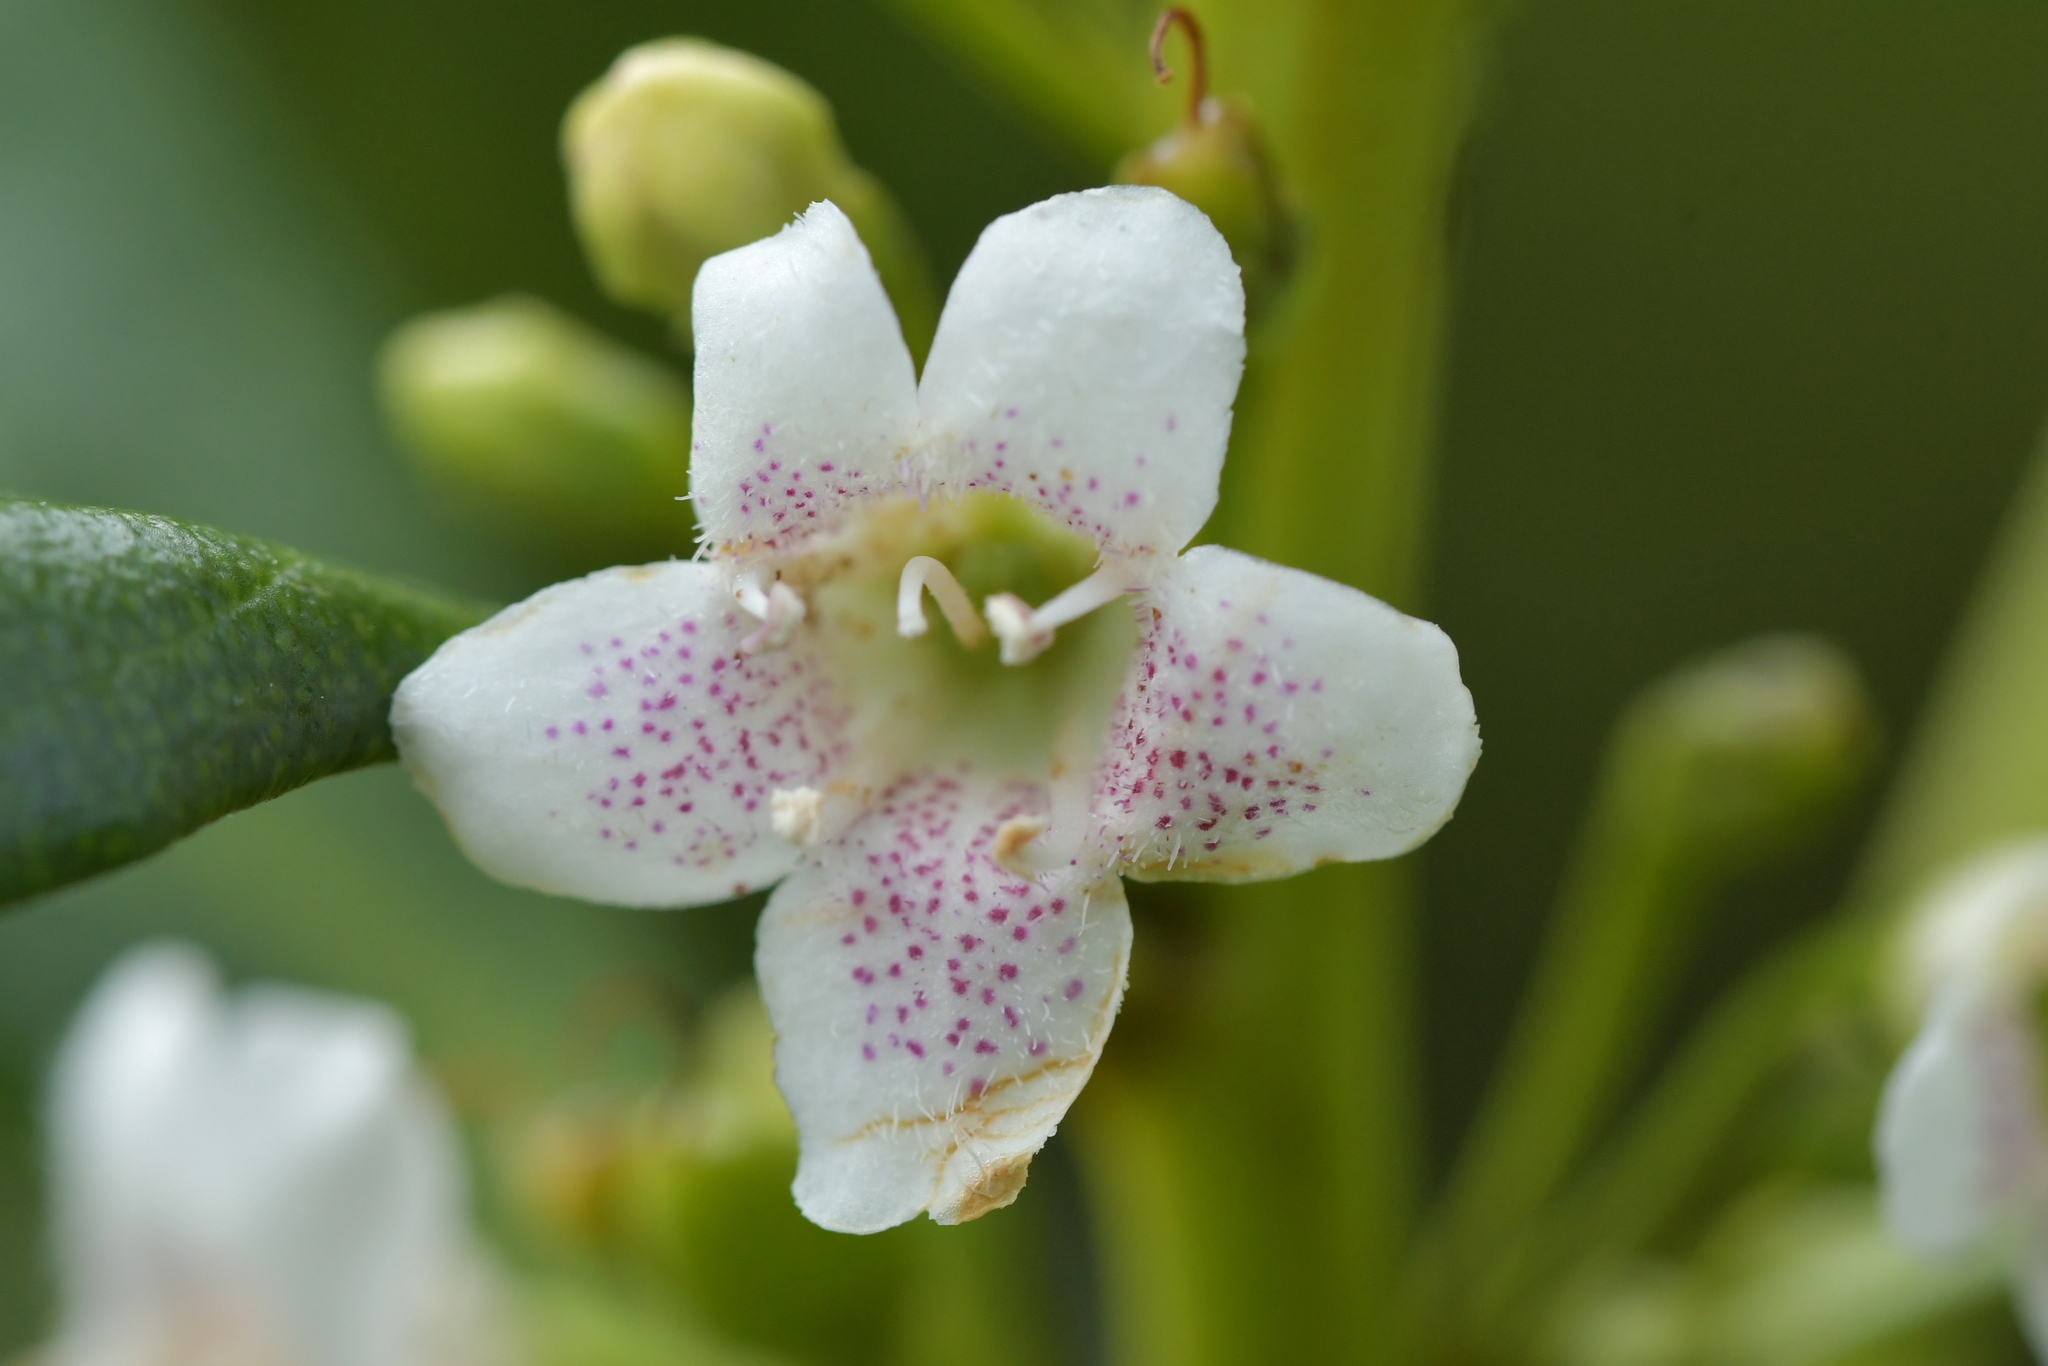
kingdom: Plantae
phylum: Tracheophyta
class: Magnoliopsida
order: Lamiales
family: Scrophulariaceae
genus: Myoporum
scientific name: Myoporum laetum
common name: Ngaio tree
